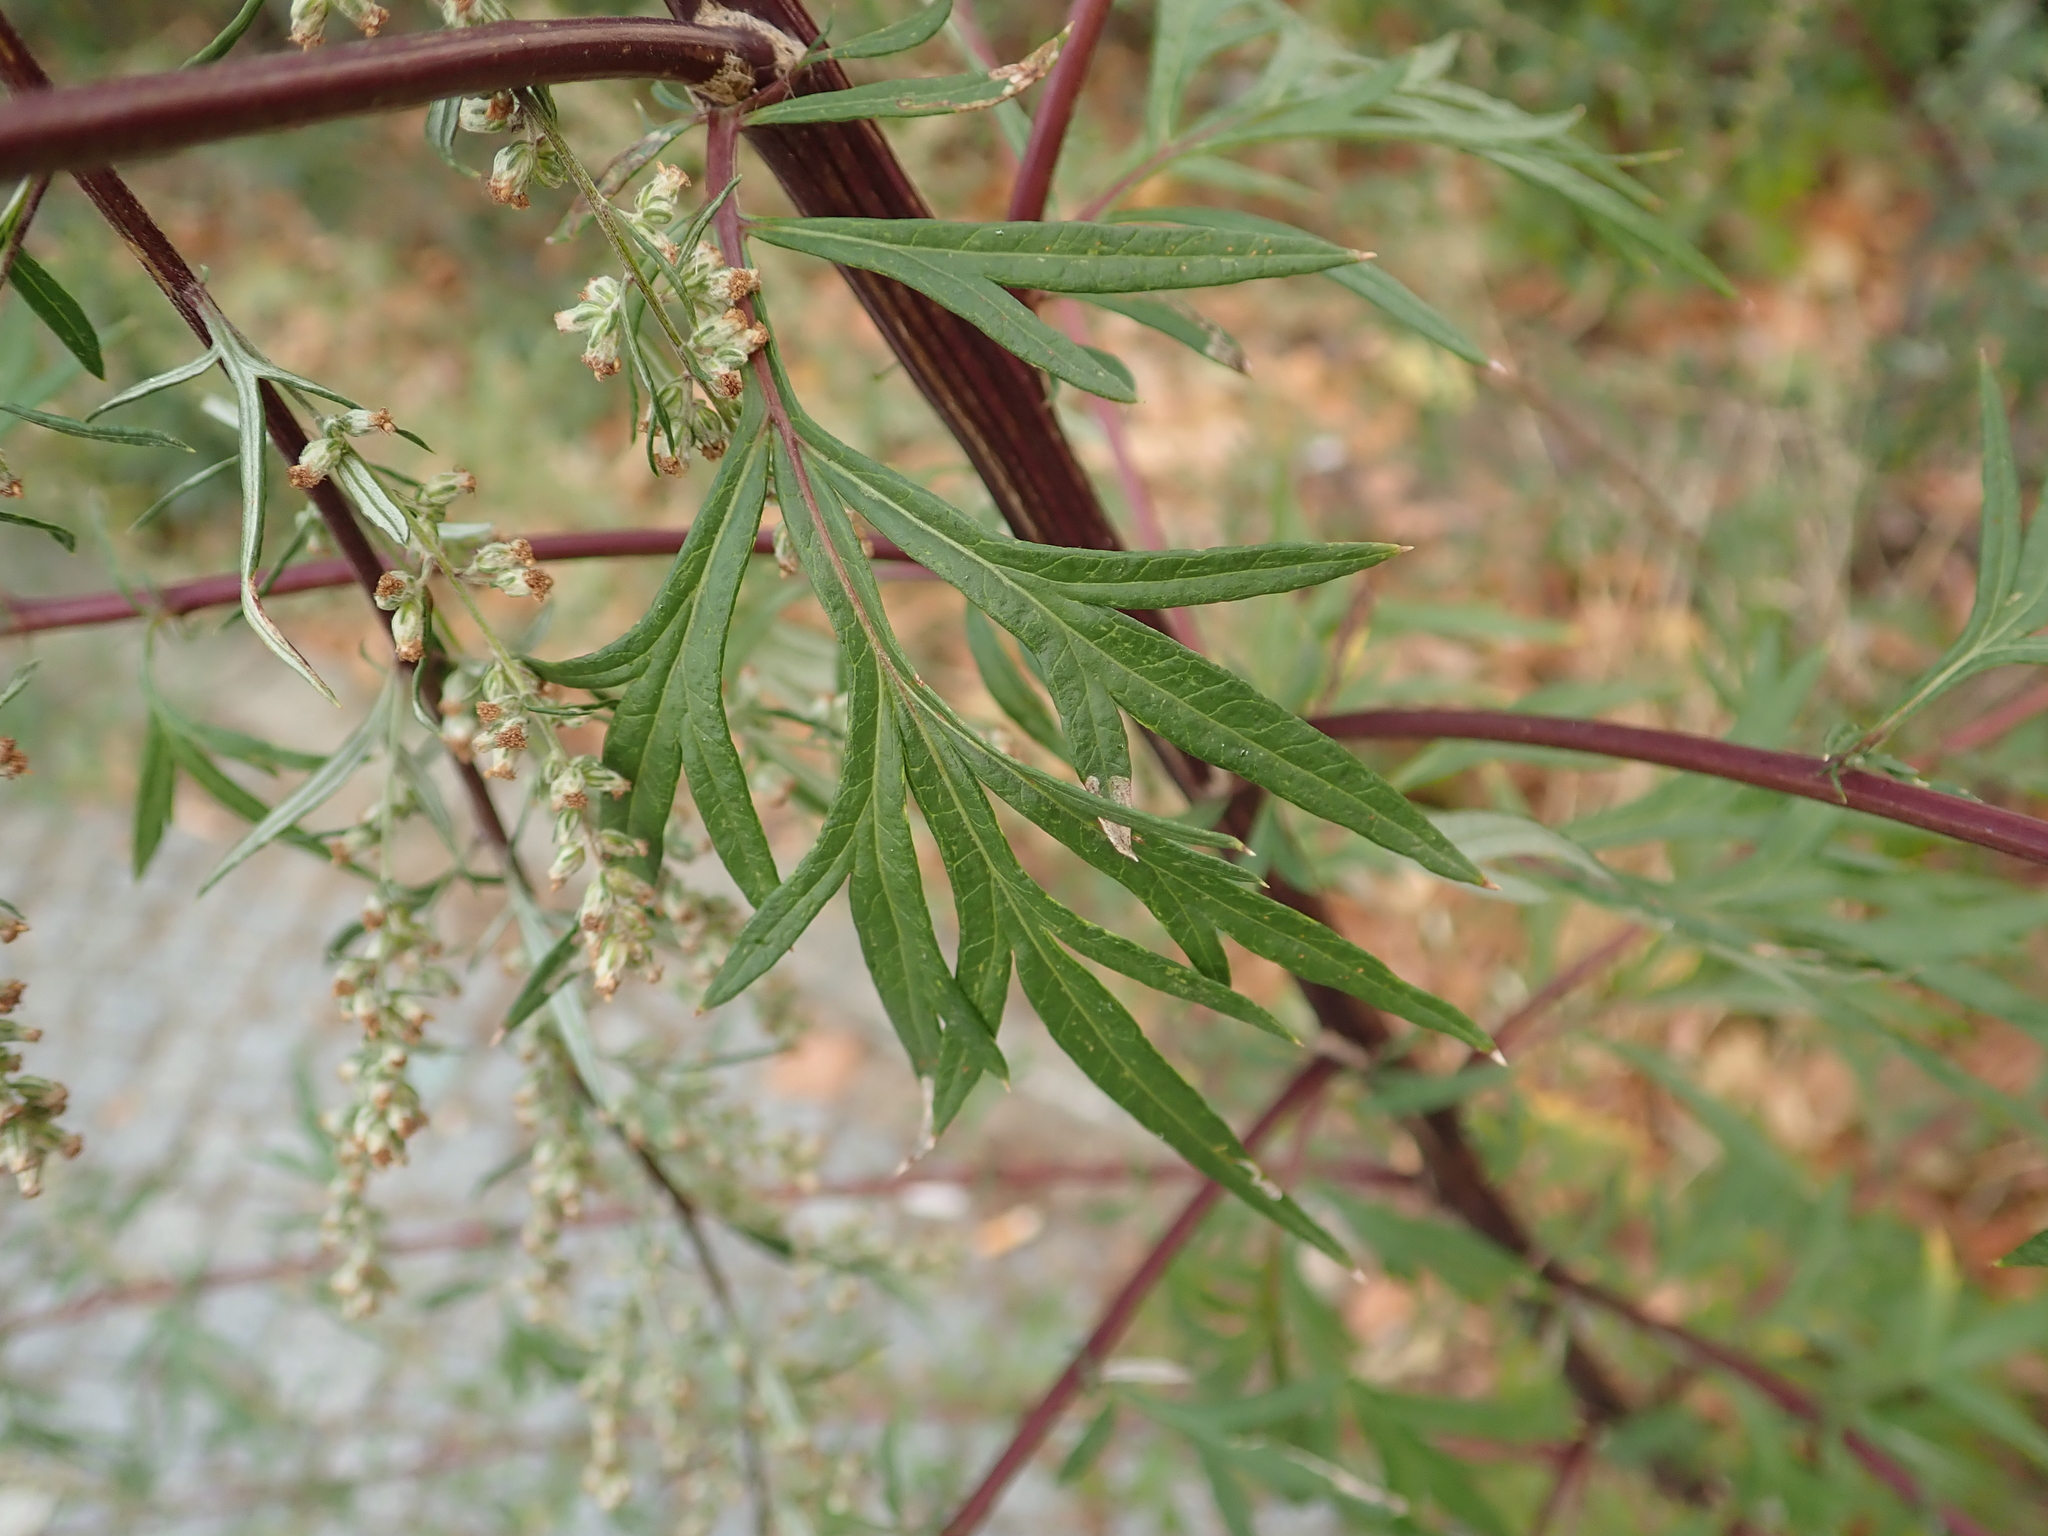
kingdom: Plantae
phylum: Tracheophyta
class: Magnoliopsida
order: Asterales
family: Asteraceae
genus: Artemisia
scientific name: Artemisia vulgaris
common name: Mugwort
